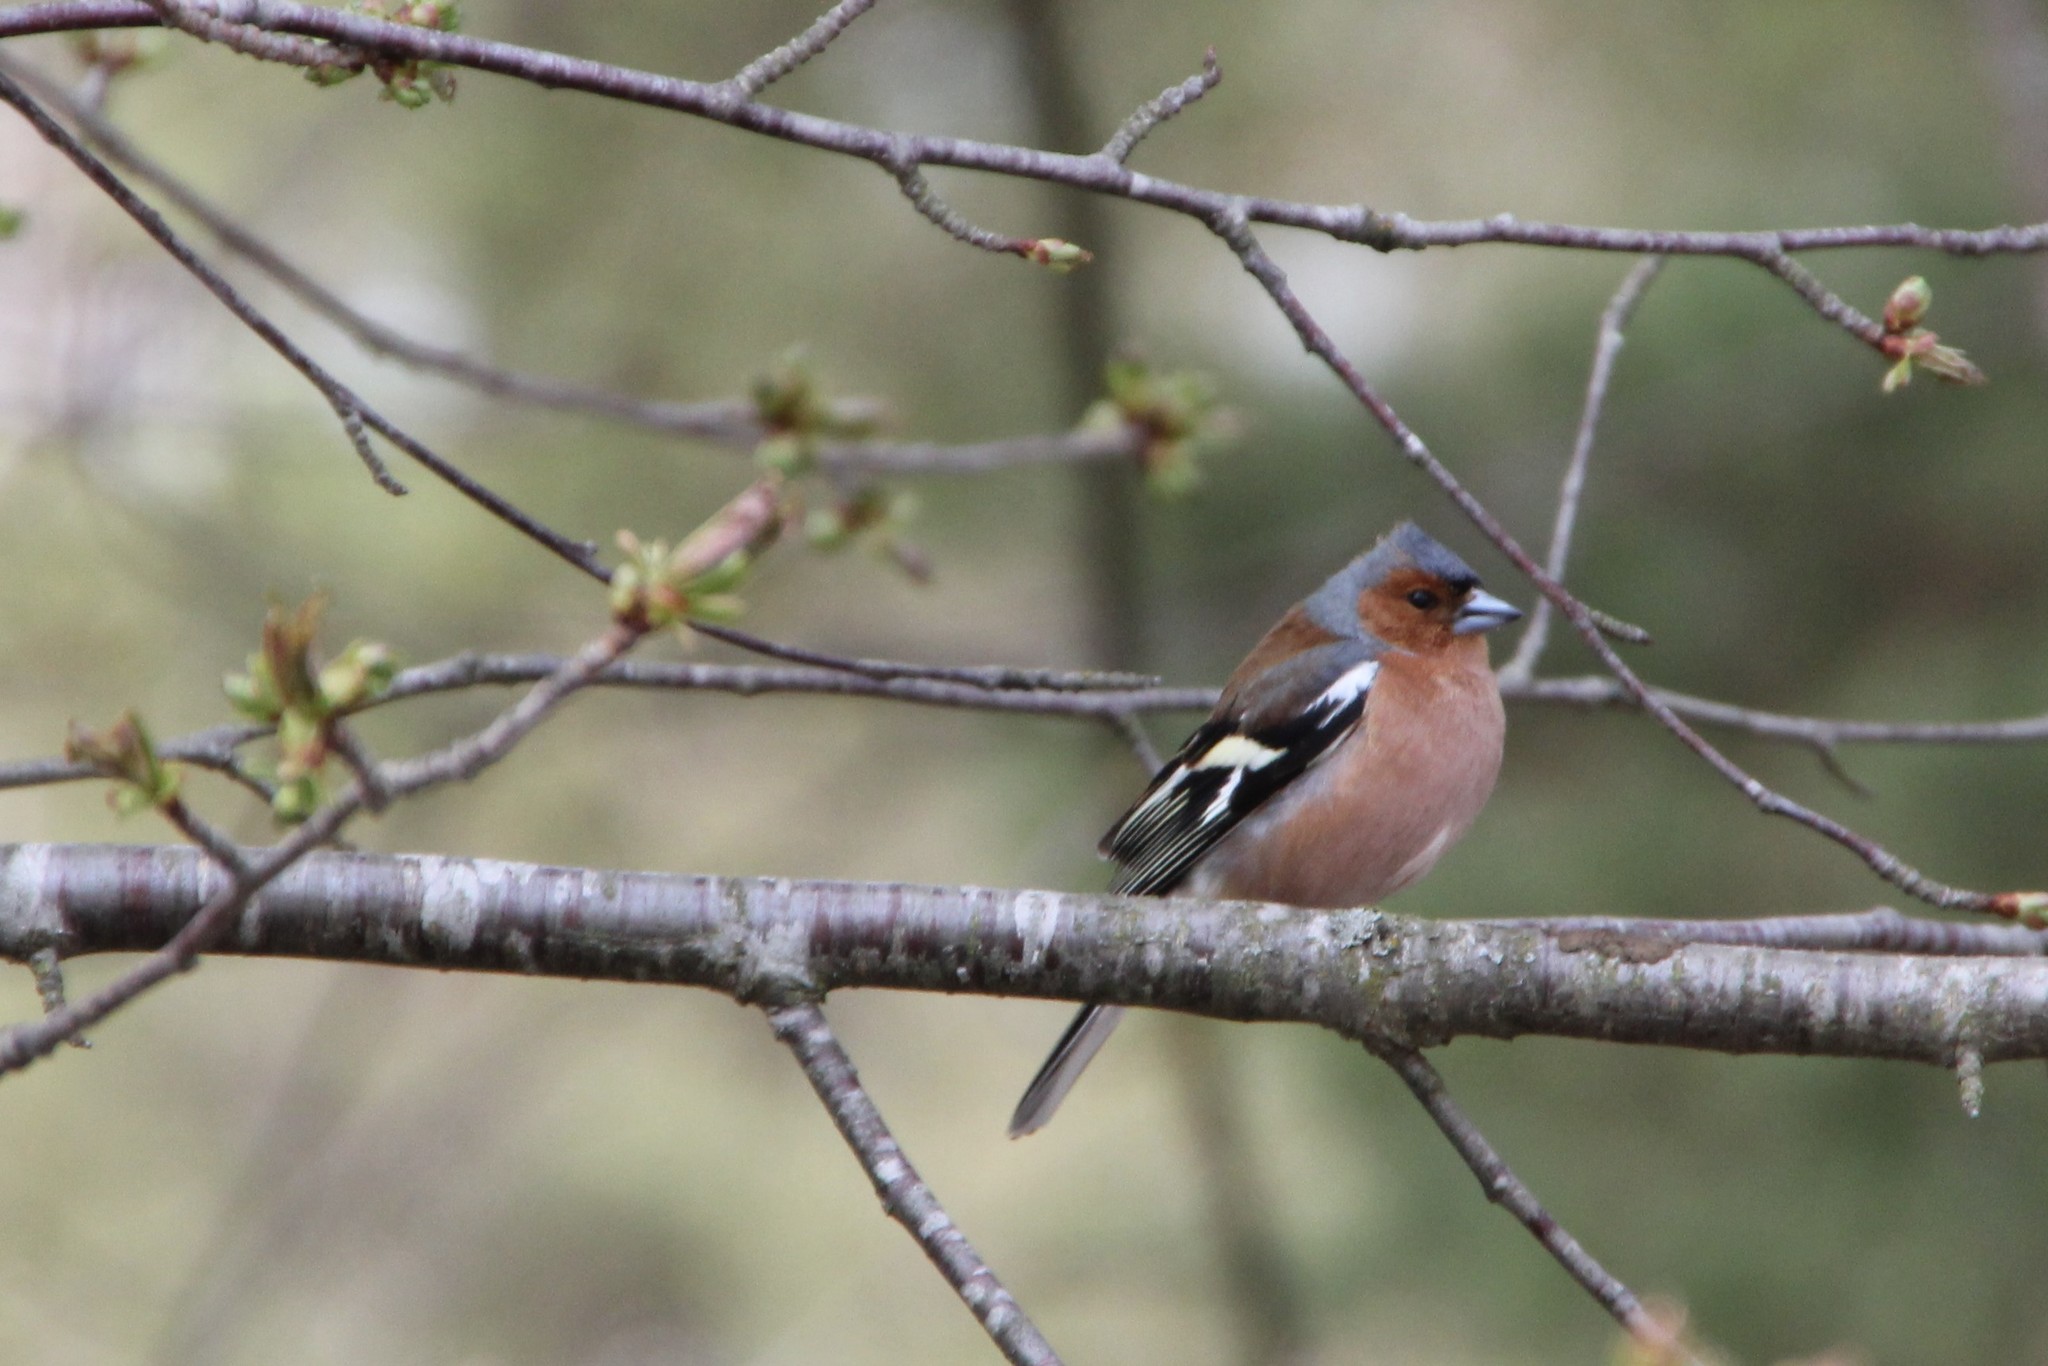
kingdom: Animalia
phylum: Chordata
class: Aves
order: Passeriformes
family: Fringillidae
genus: Fringilla
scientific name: Fringilla coelebs
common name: Common chaffinch
